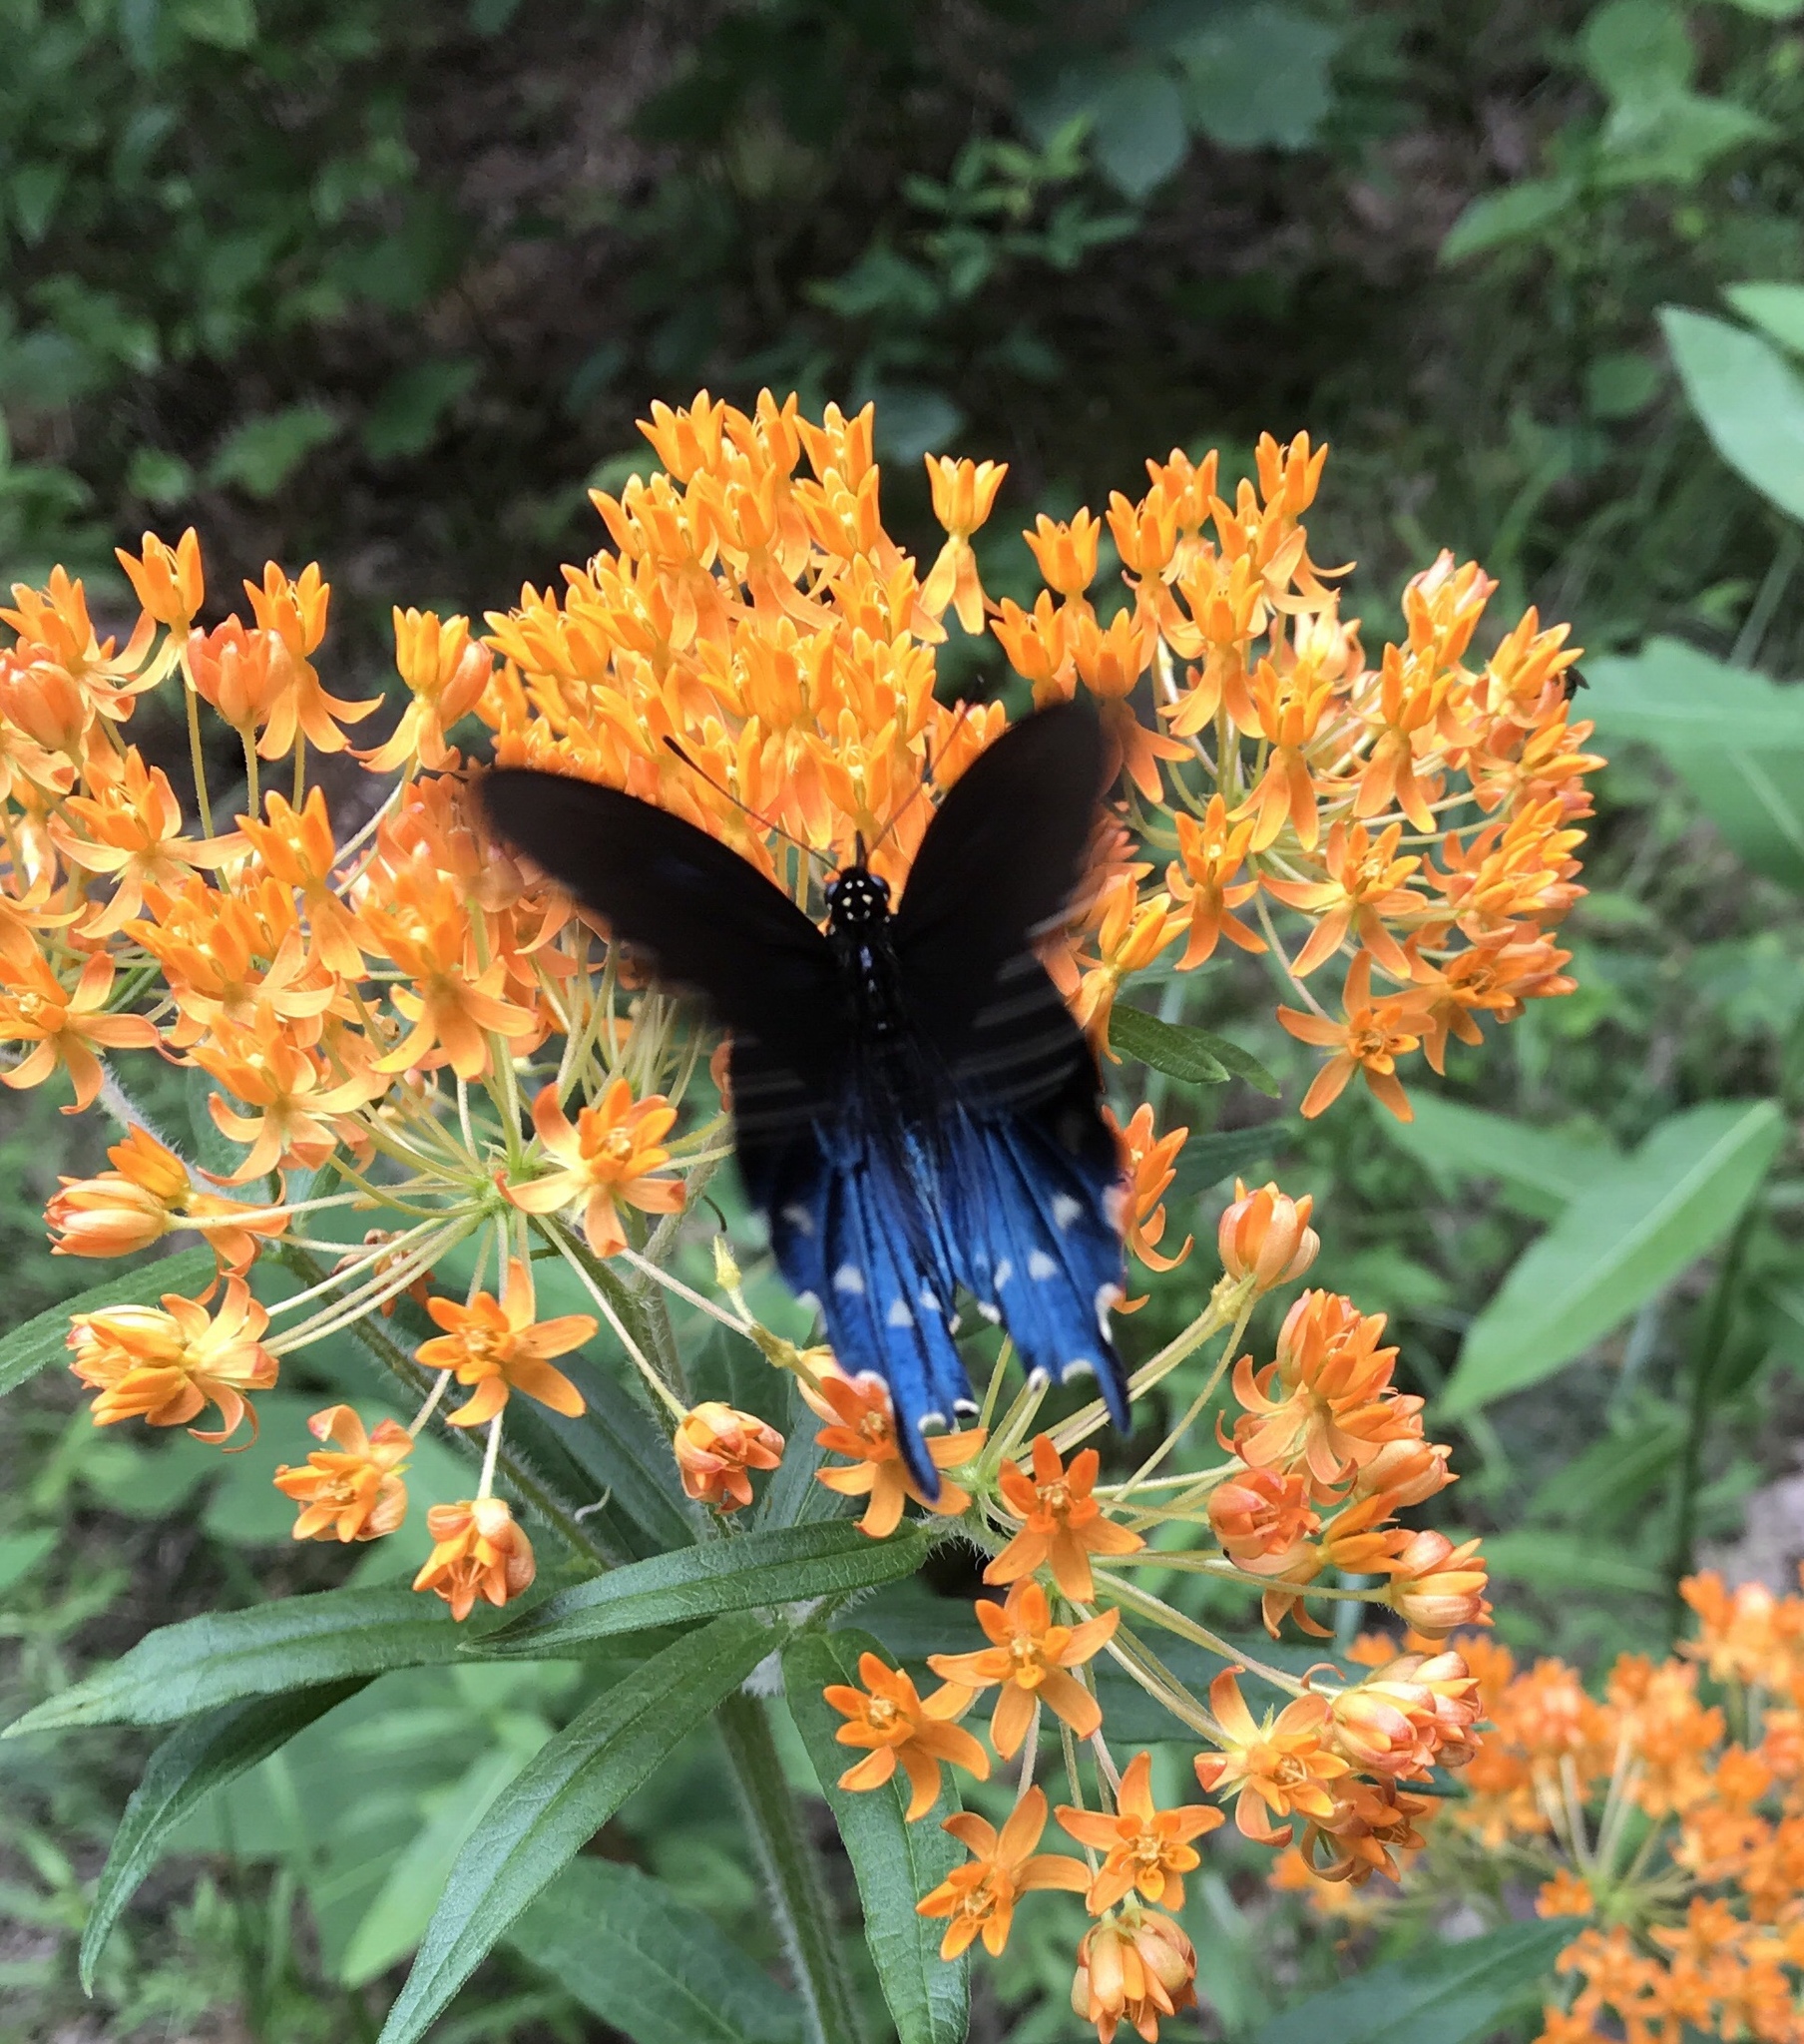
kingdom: Animalia
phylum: Arthropoda
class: Insecta
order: Lepidoptera
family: Papilionidae
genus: Battus
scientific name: Battus philenor
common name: Pipevine swallowtail
